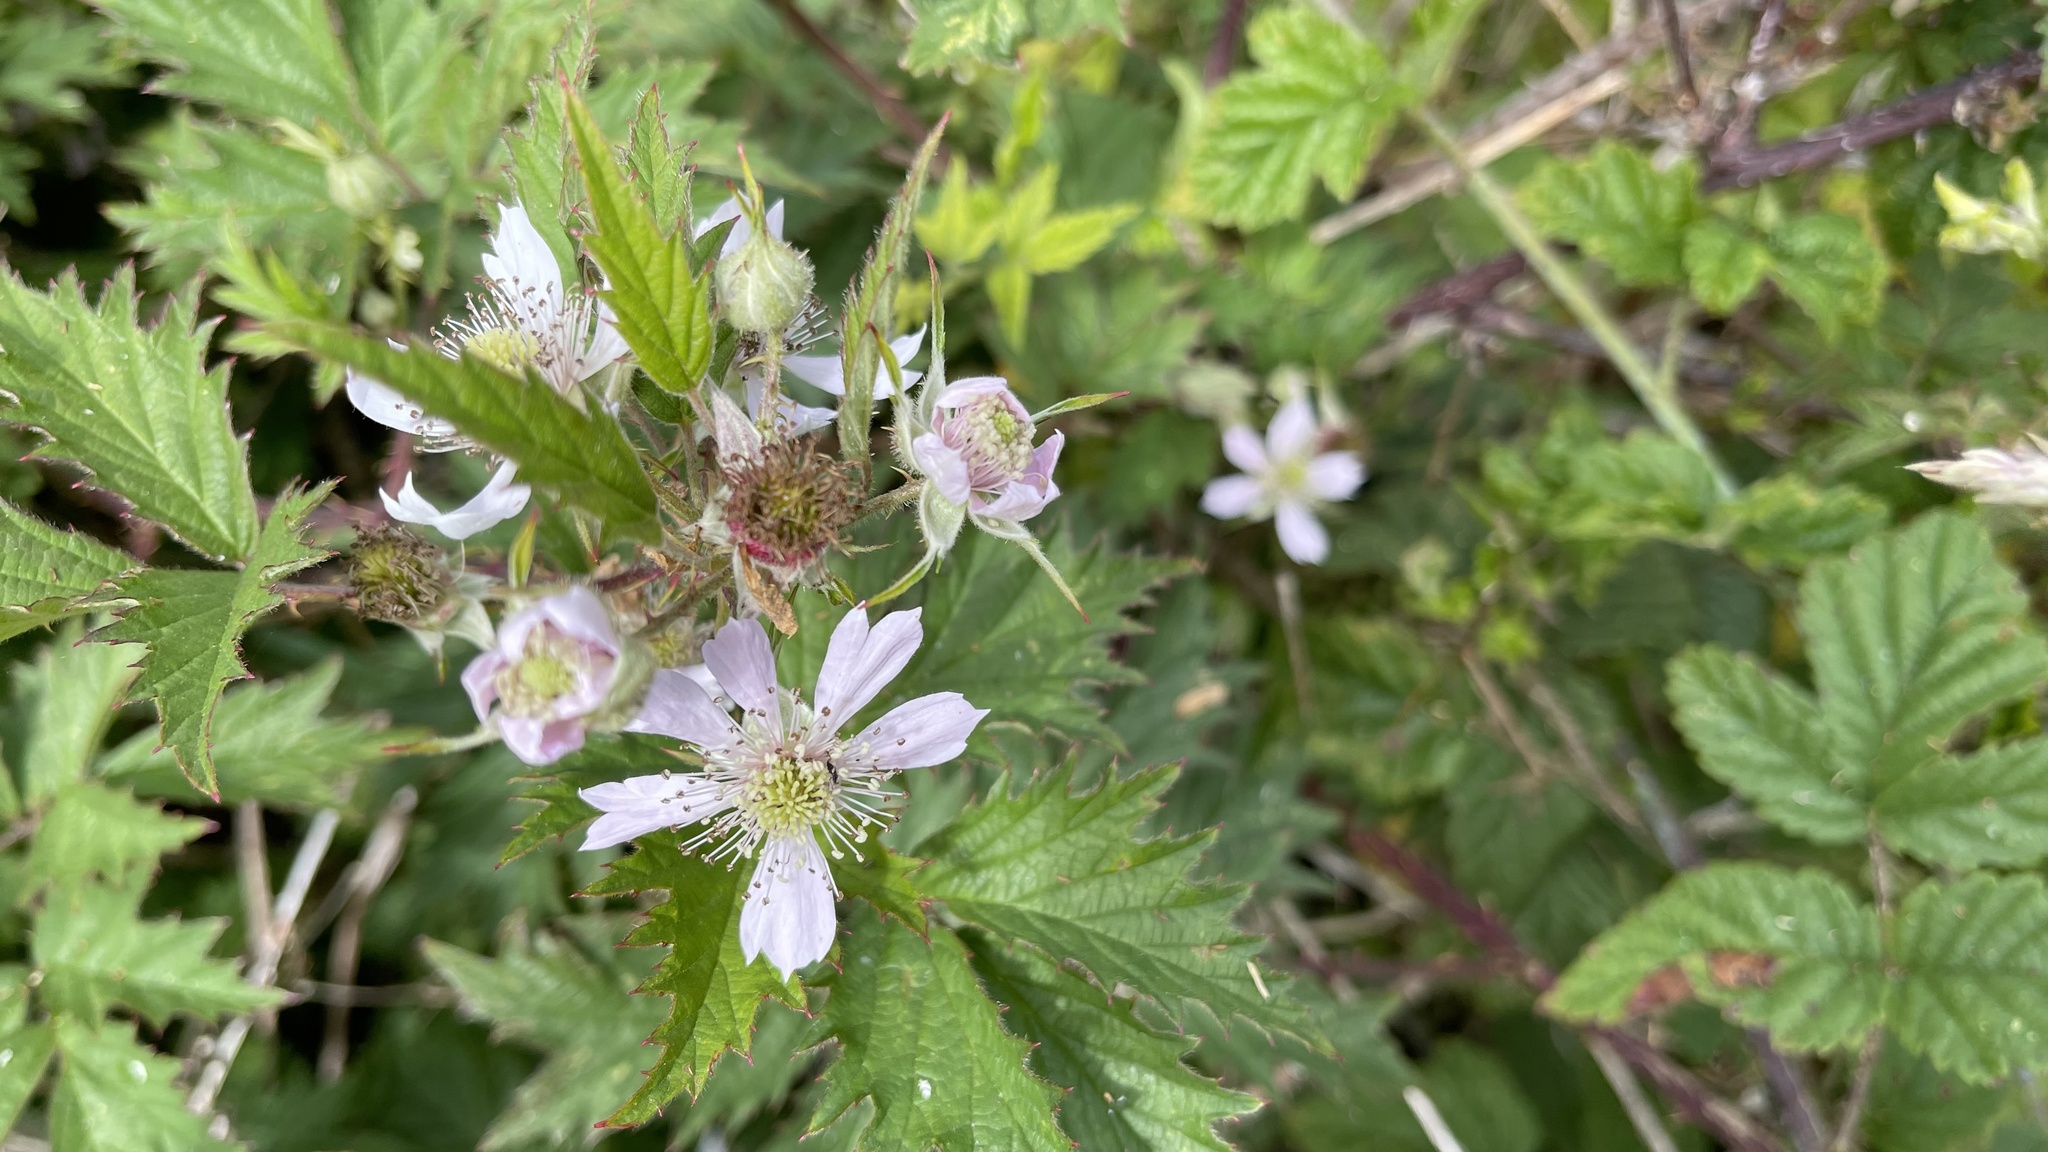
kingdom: Plantae
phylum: Tracheophyta
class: Magnoliopsida
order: Rosales
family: Rosaceae
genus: Rubus
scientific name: Rubus laciniatus
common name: Evergreen blackberry
